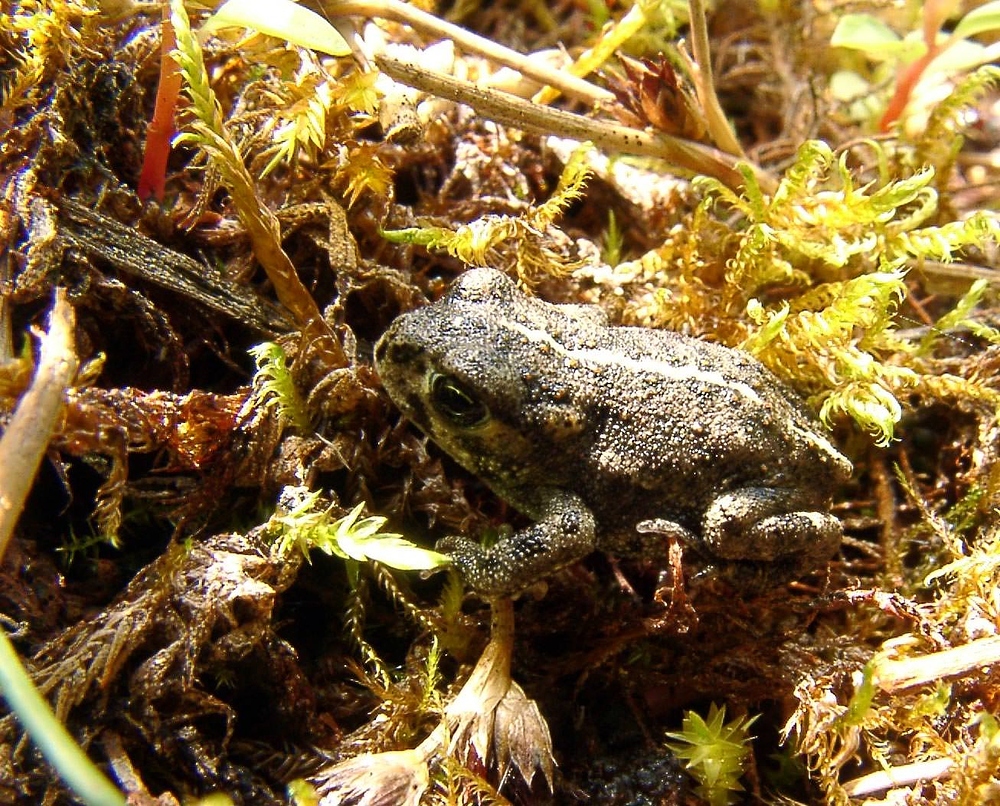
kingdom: Animalia
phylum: Chordata
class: Amphibia
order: Anura
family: Bufonidae
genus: Epidalea
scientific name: Epidalea calamita
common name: Natterjack toad
